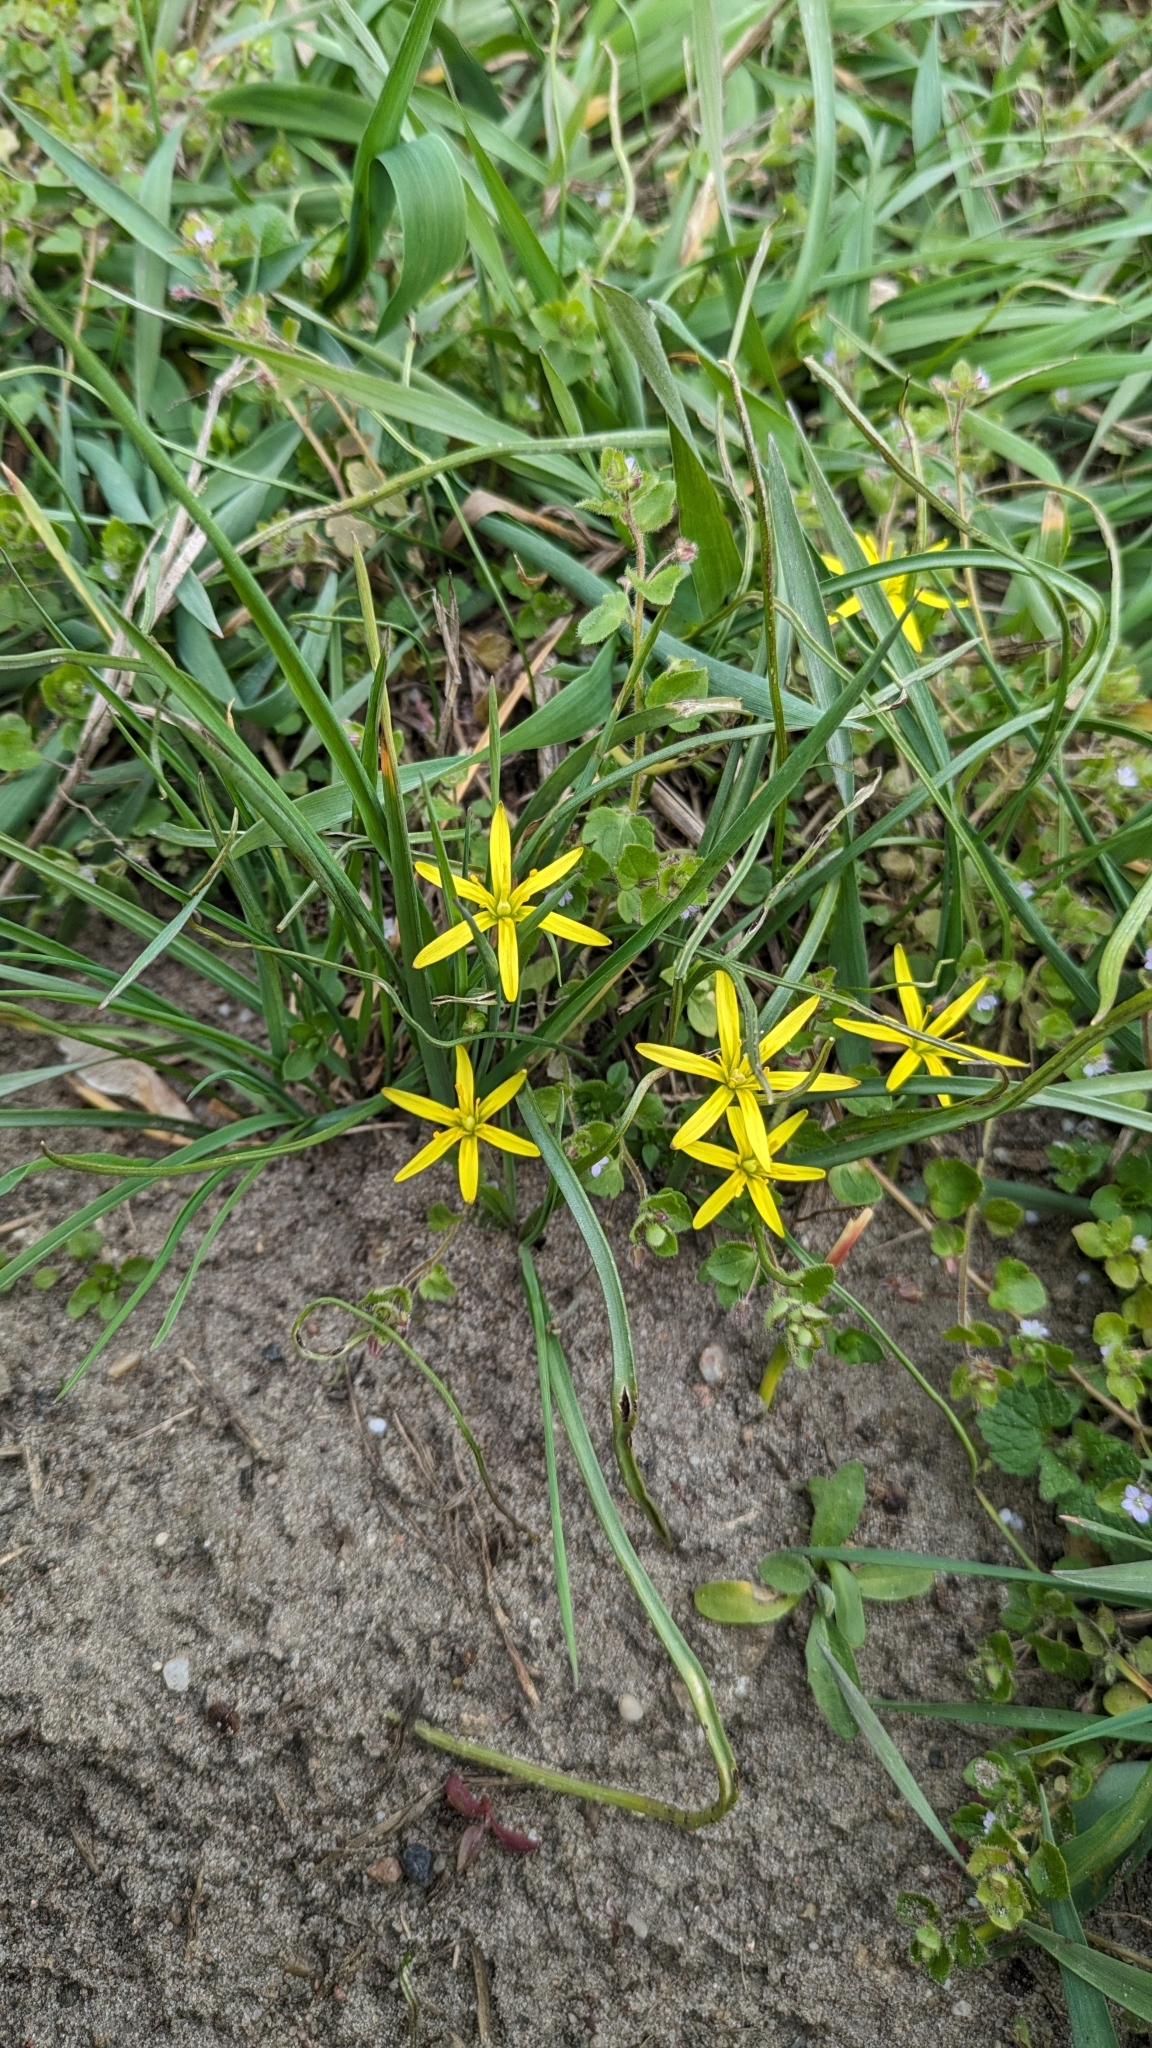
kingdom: Plantae
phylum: Tracheophyta
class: Liliopsida
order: Liliales
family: Liliaceae
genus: Gagea
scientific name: Gagea pratensis
